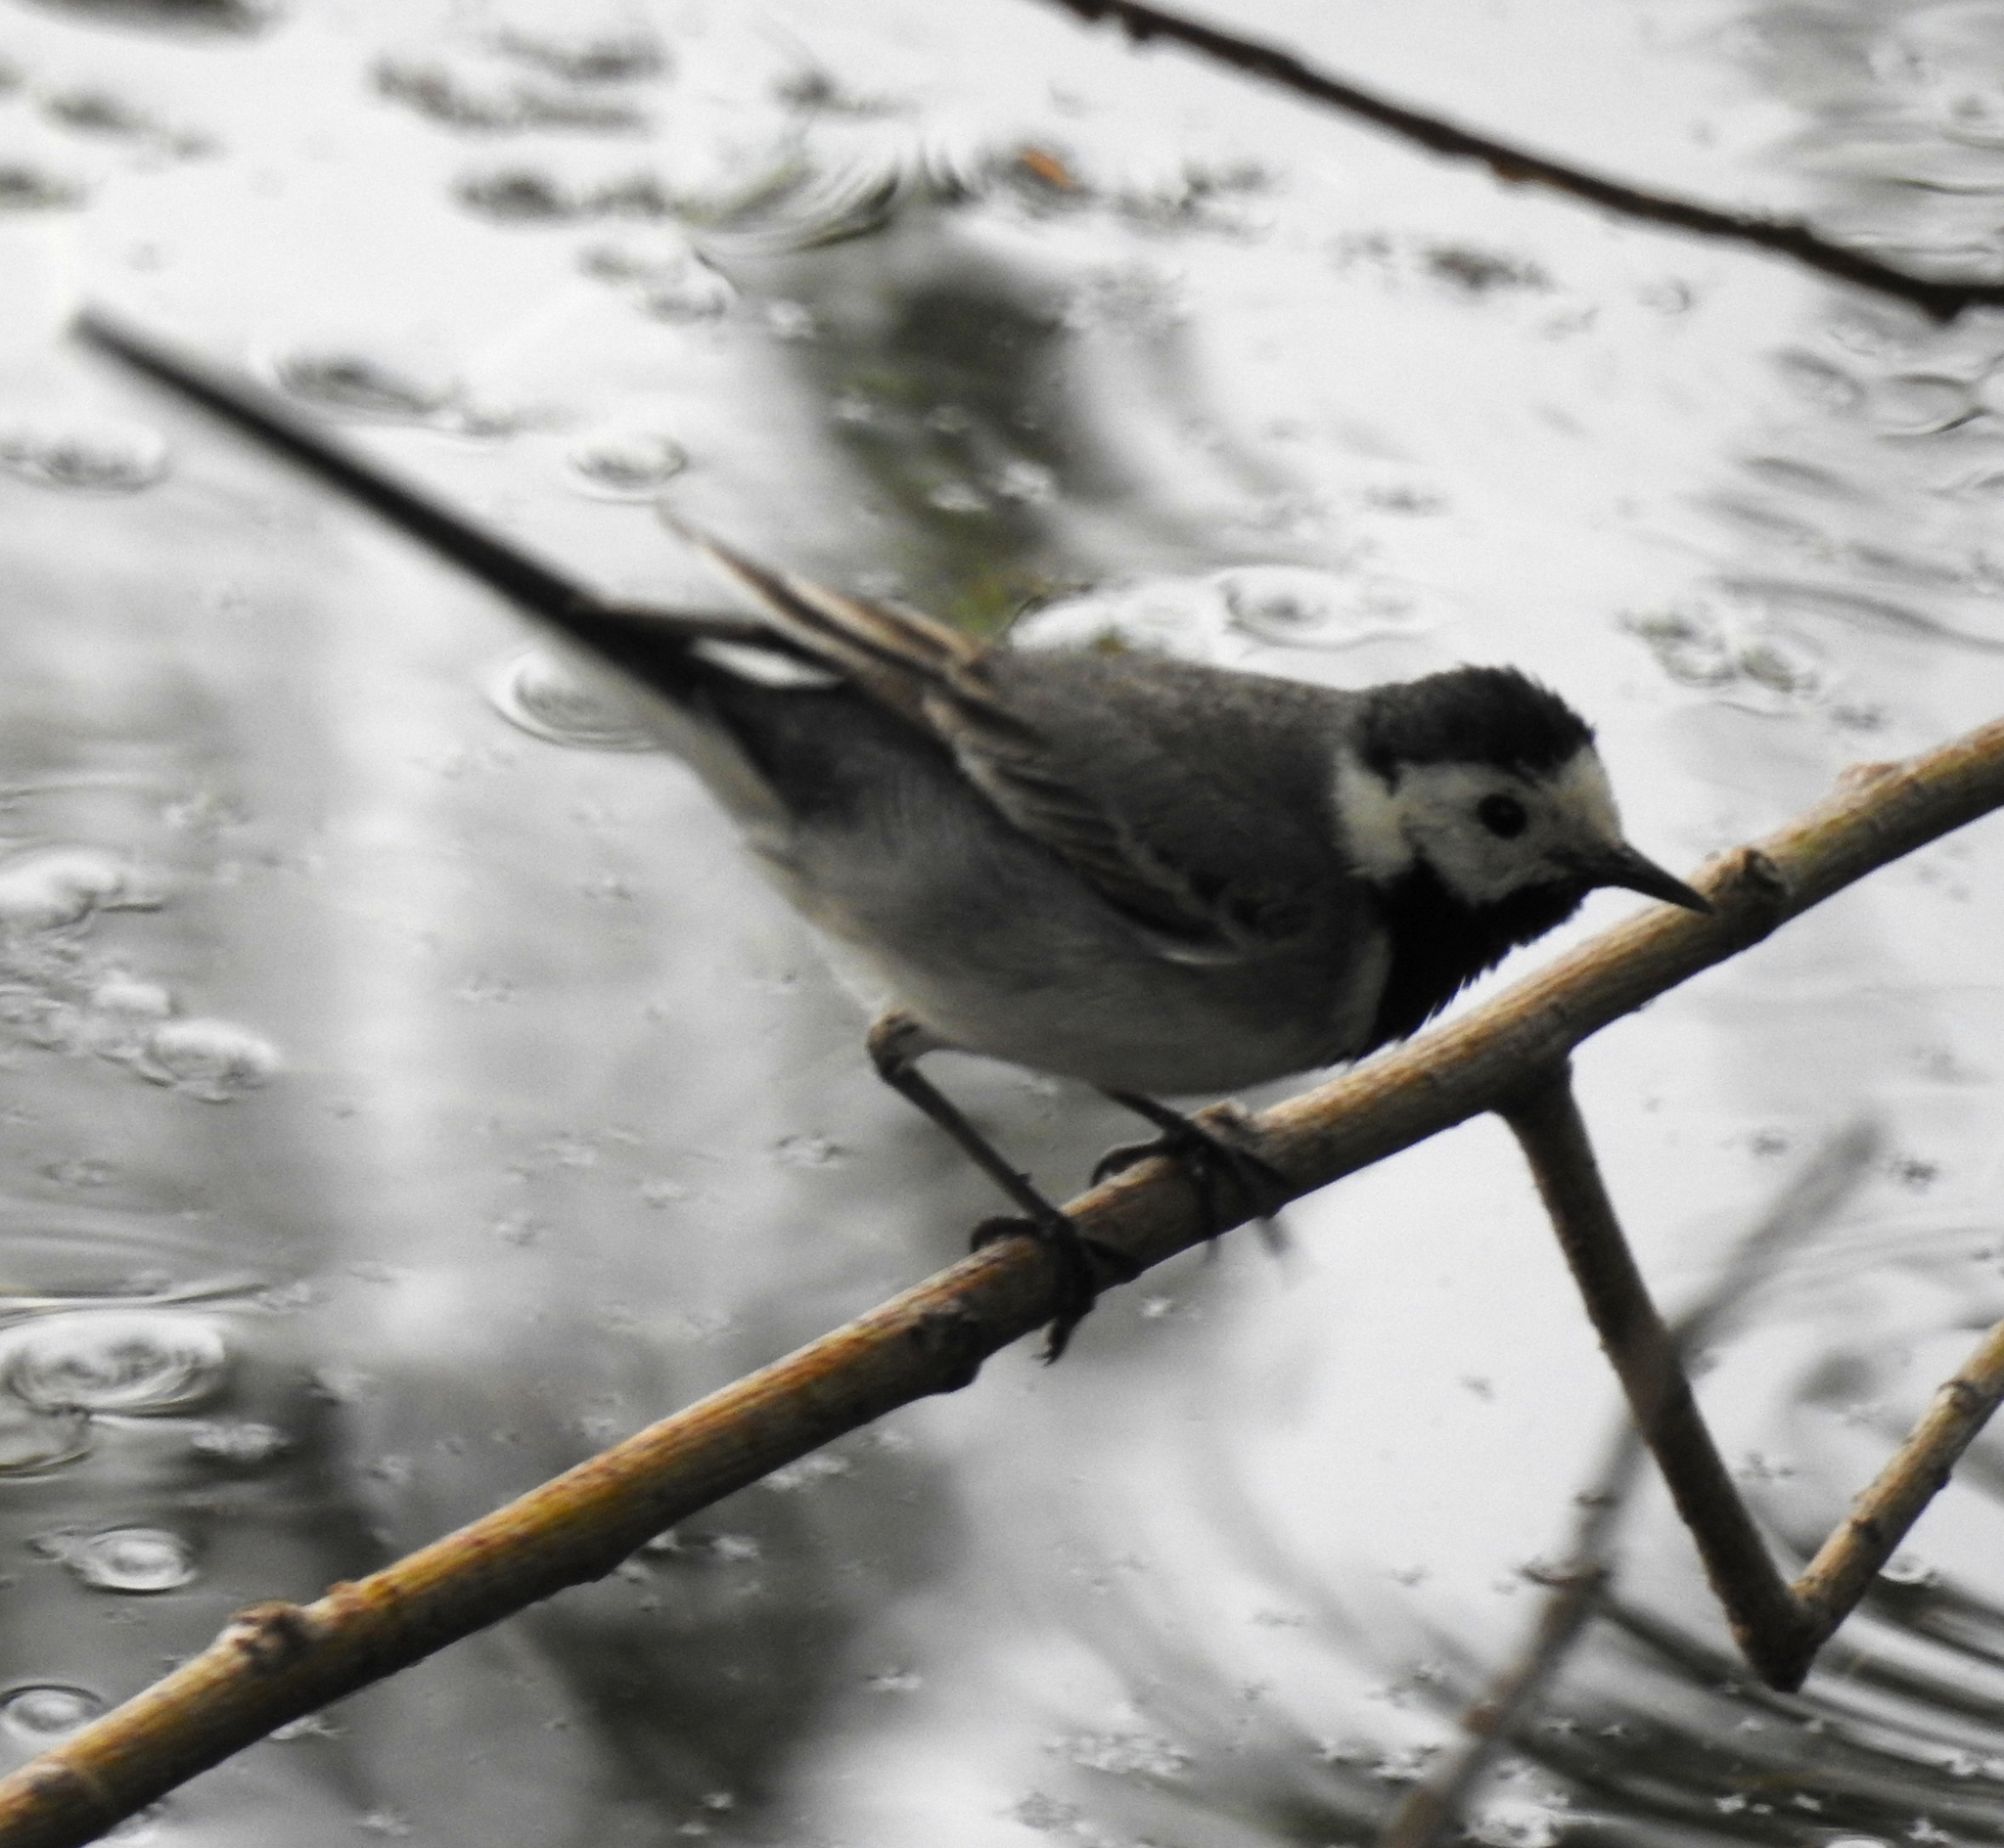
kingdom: Animalia
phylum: Chordata
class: Aves
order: Passeriformes
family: Motacillidae
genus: Motacilla
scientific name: Motacilla alba
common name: White wagtail
